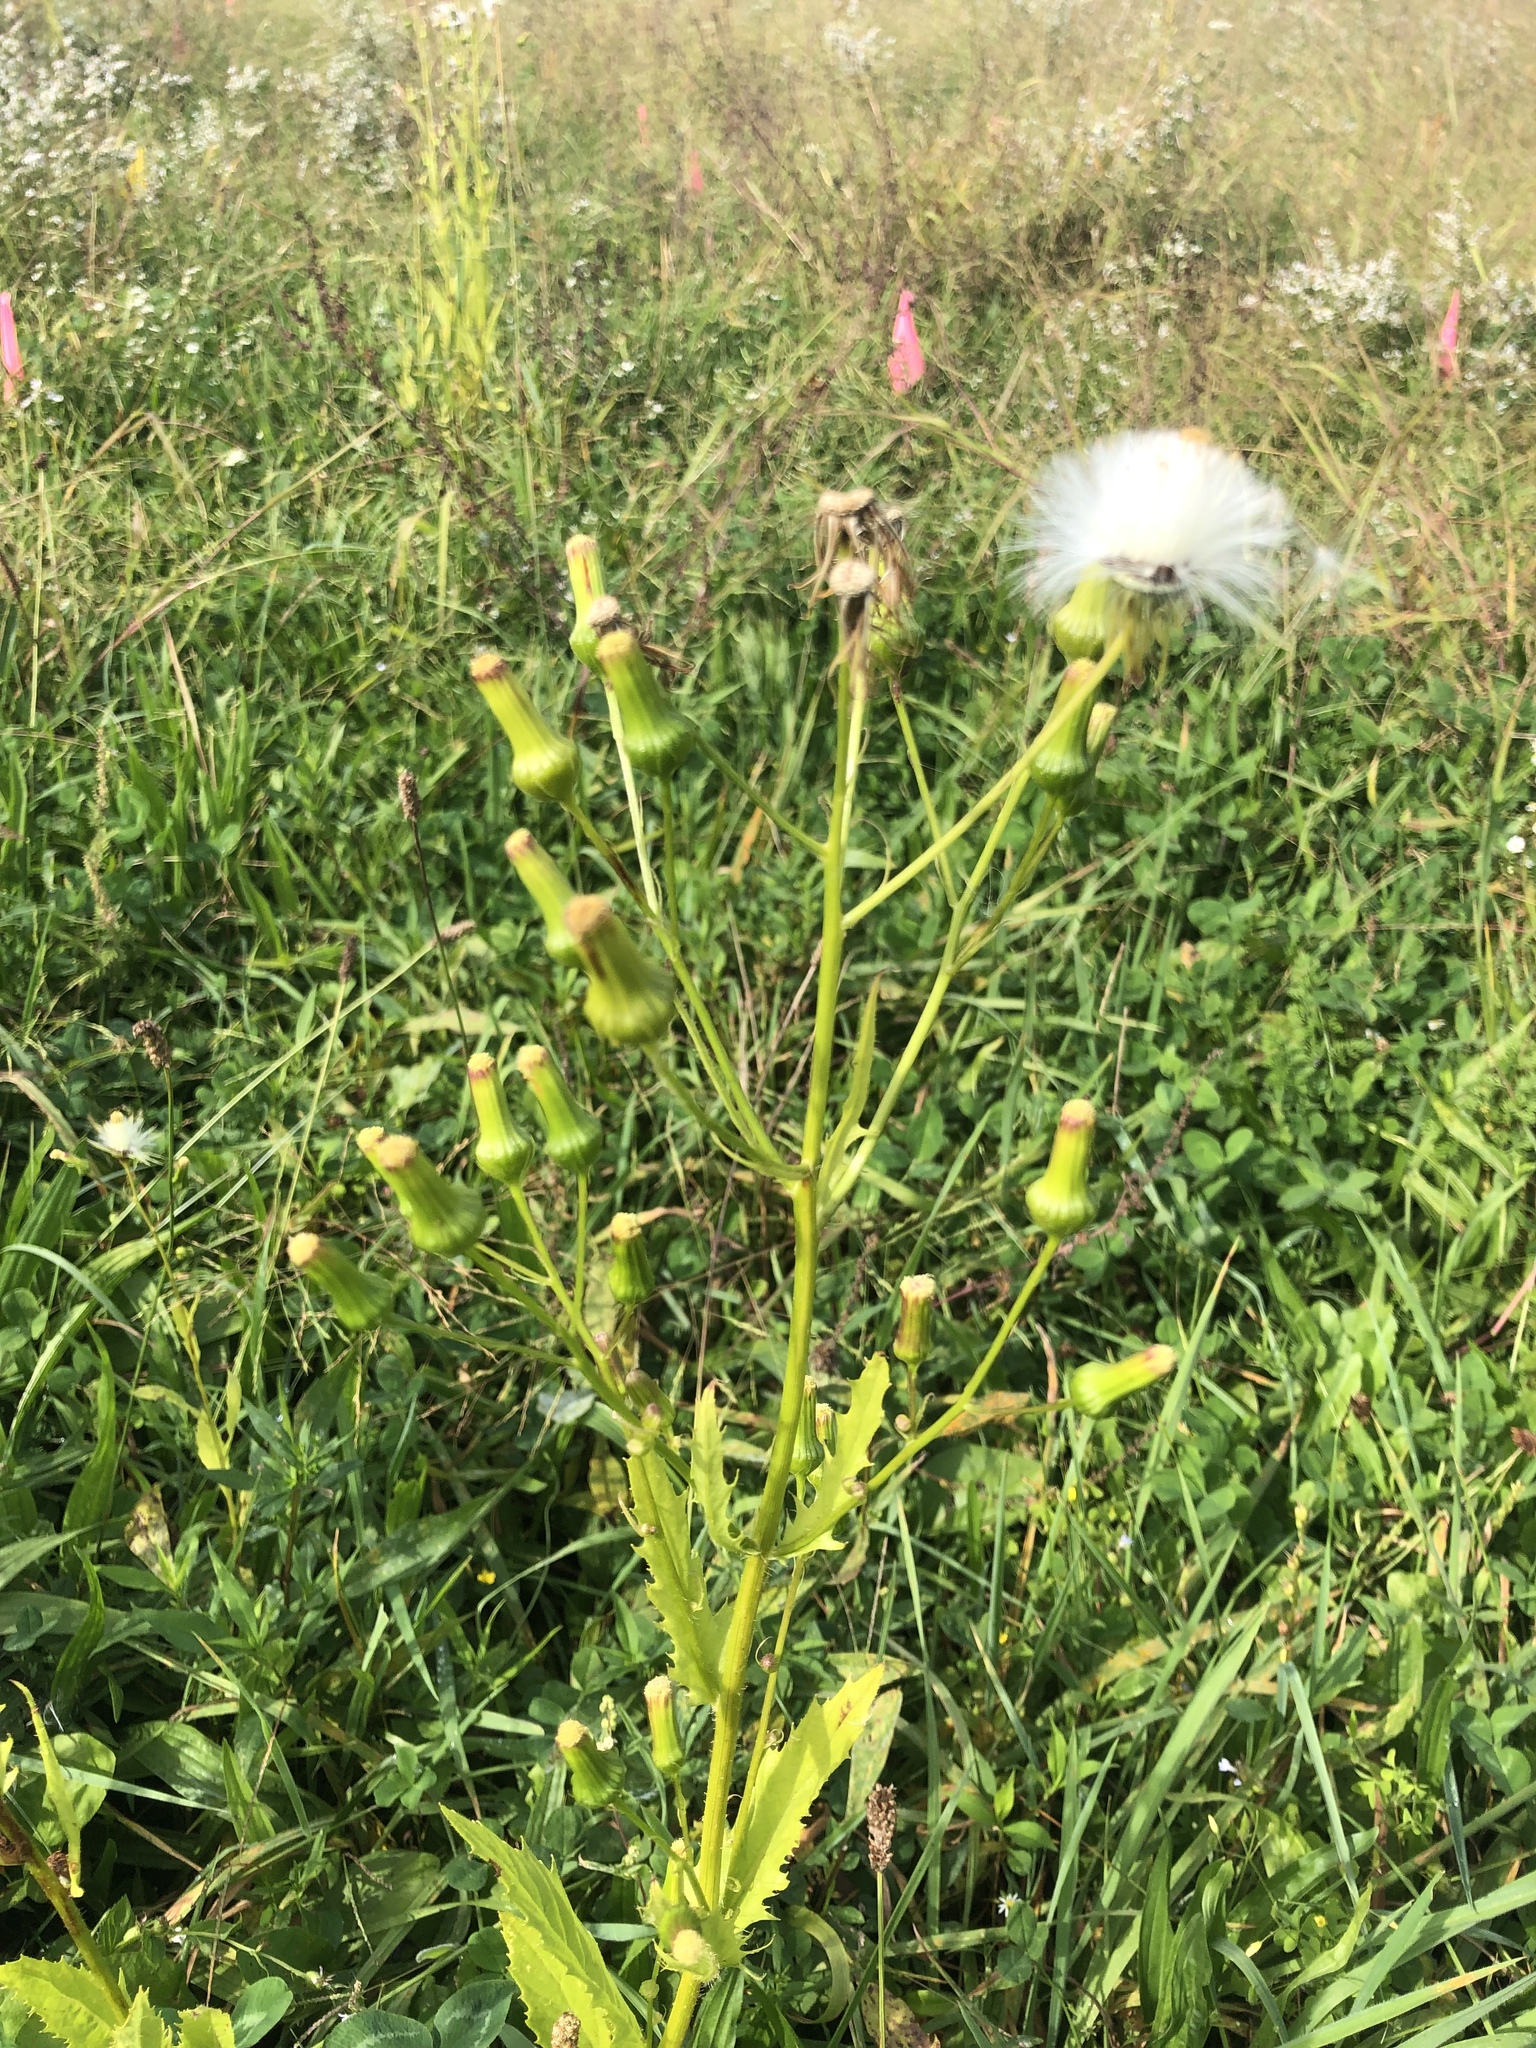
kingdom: Plantae
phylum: Tracheophyta
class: Magnoliopsida
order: Asterales
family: Asteraceae
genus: Erechtites
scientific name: Erechtites hieraciifolius
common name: American burnweed
